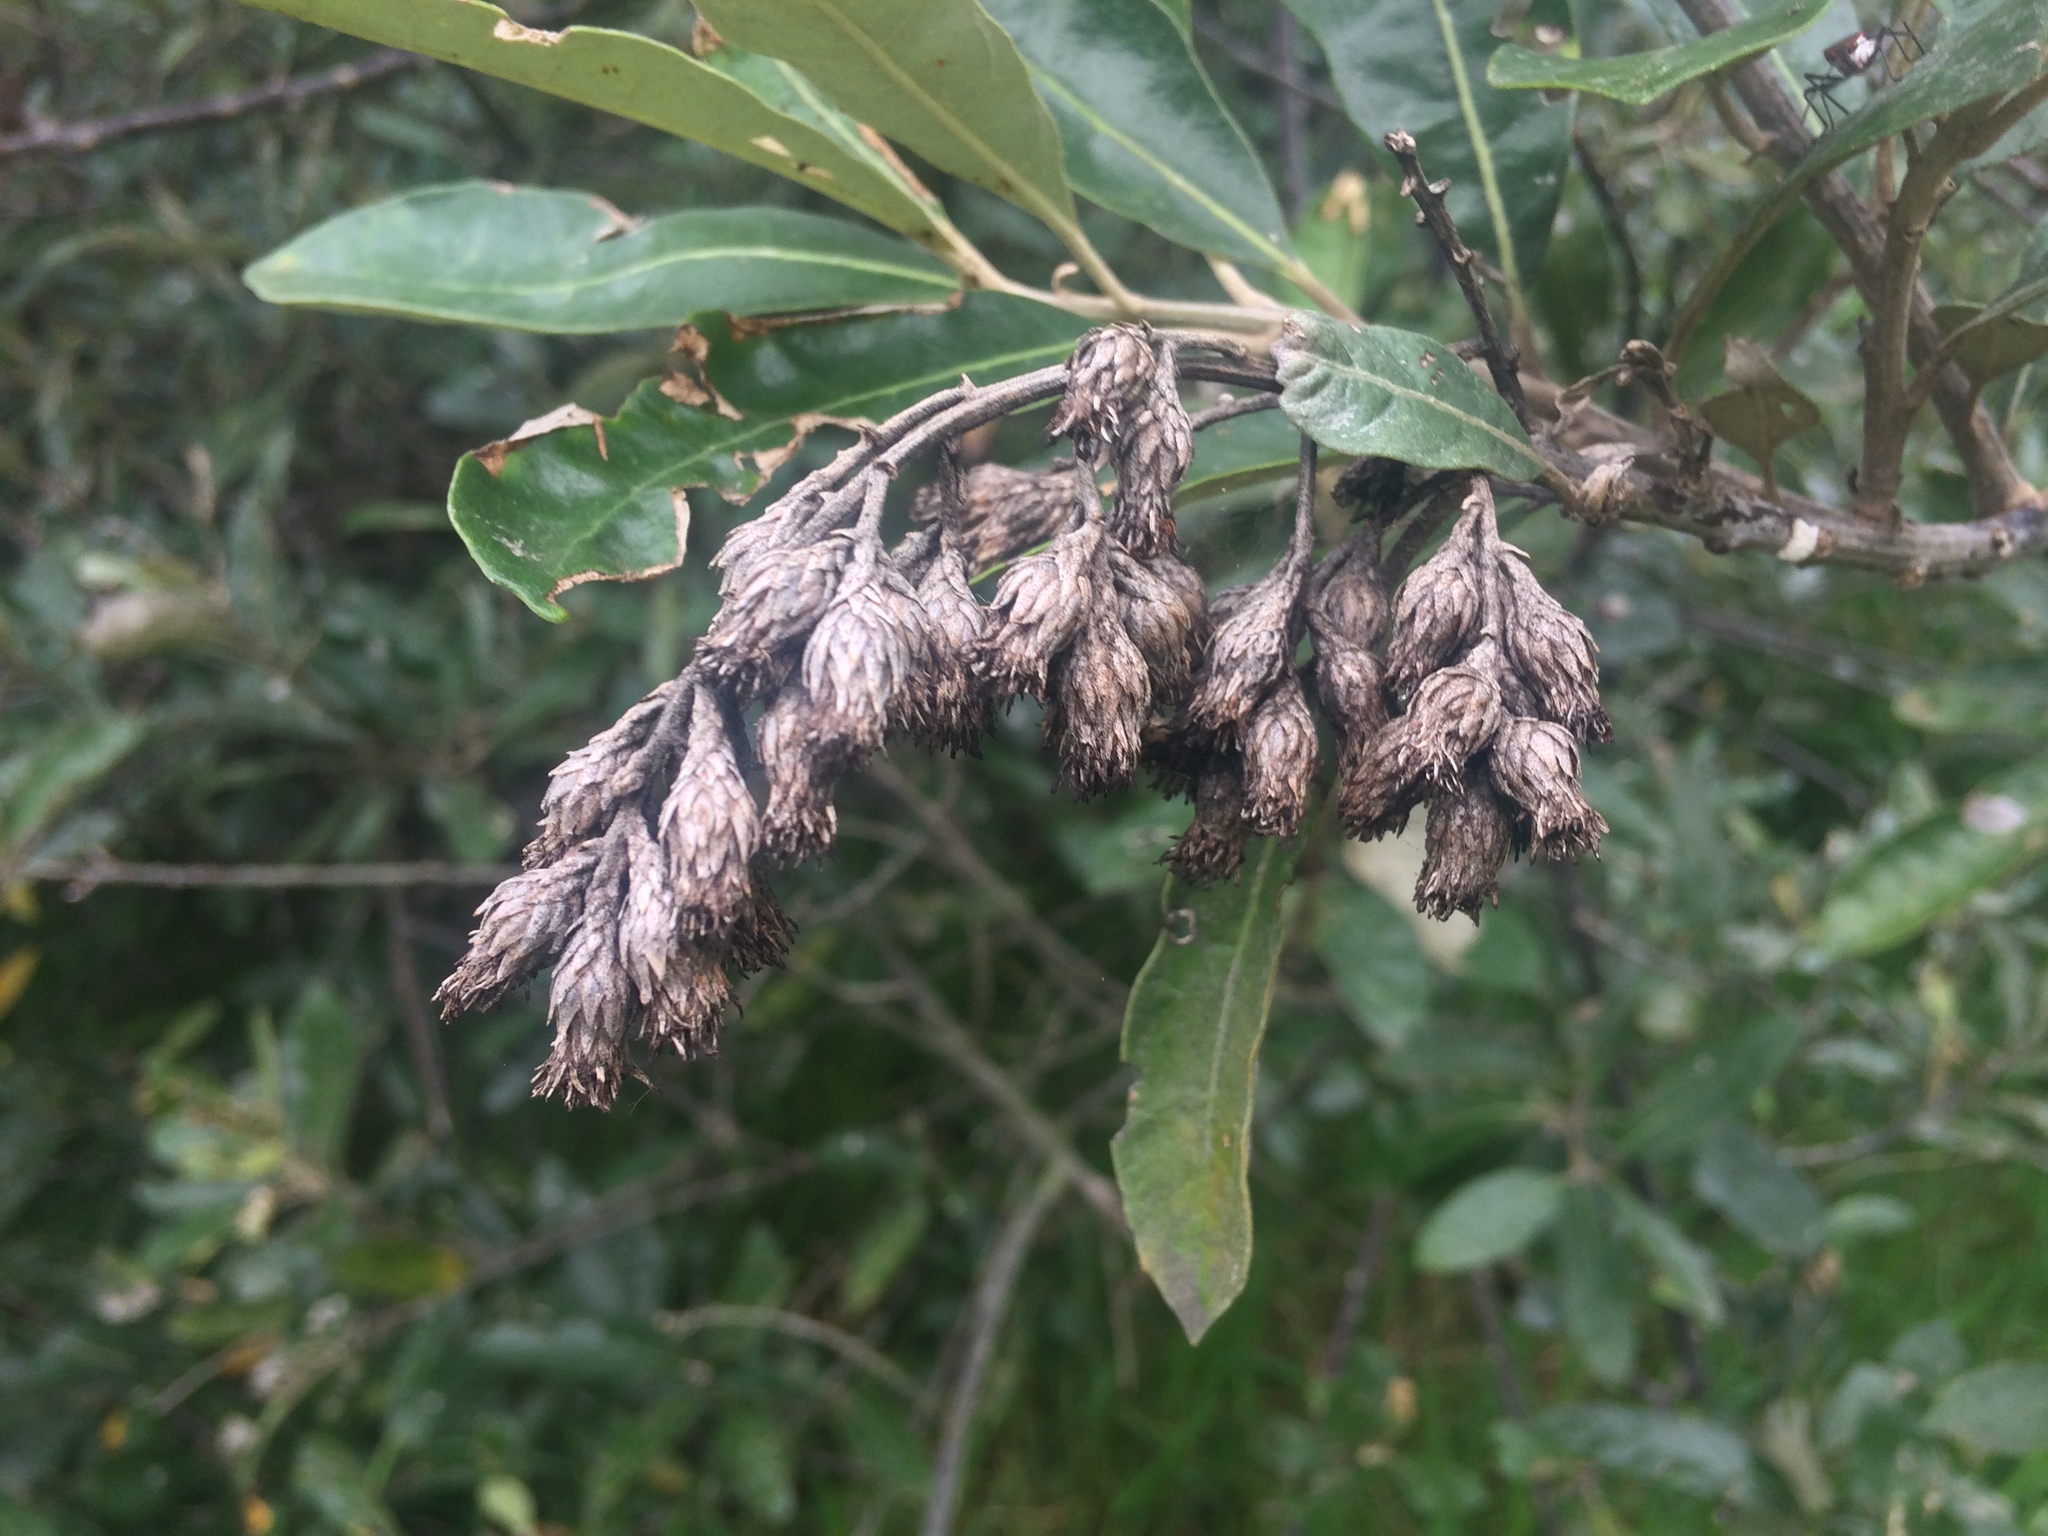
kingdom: Plantae
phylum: Tracheophyta
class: Magnoliopsida
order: Asterales
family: Asteraceae
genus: Brachylaena
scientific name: Brachylaena discolor
